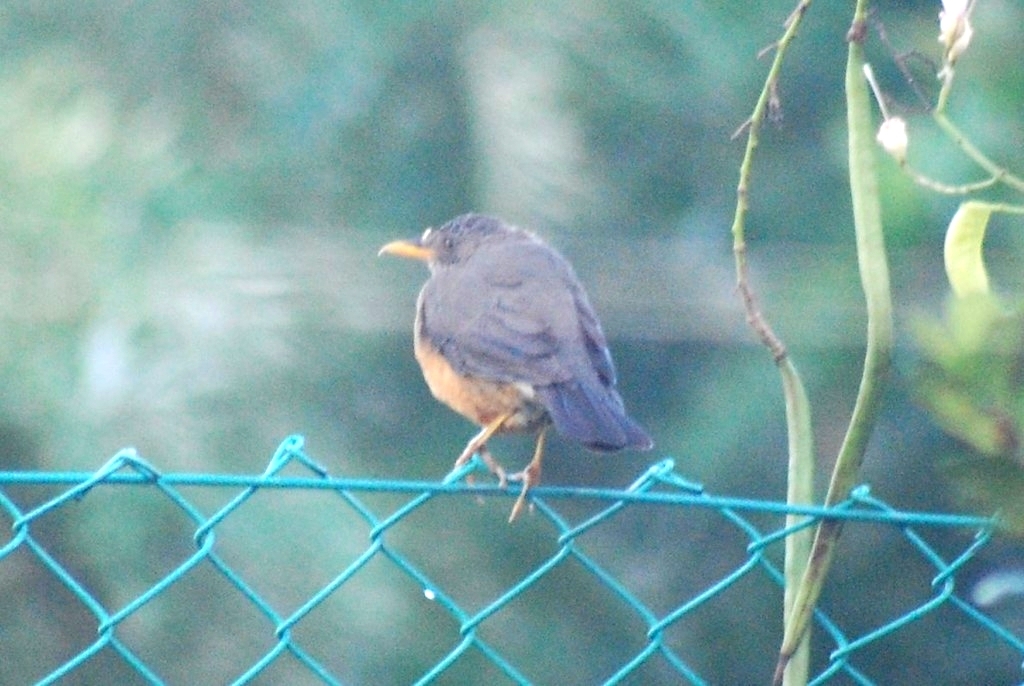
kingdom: Animalia
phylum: Chordata
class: Aves
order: Passeriformes
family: Turdidae
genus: Turdus
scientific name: Turdus olivaceus
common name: Olive thrush
